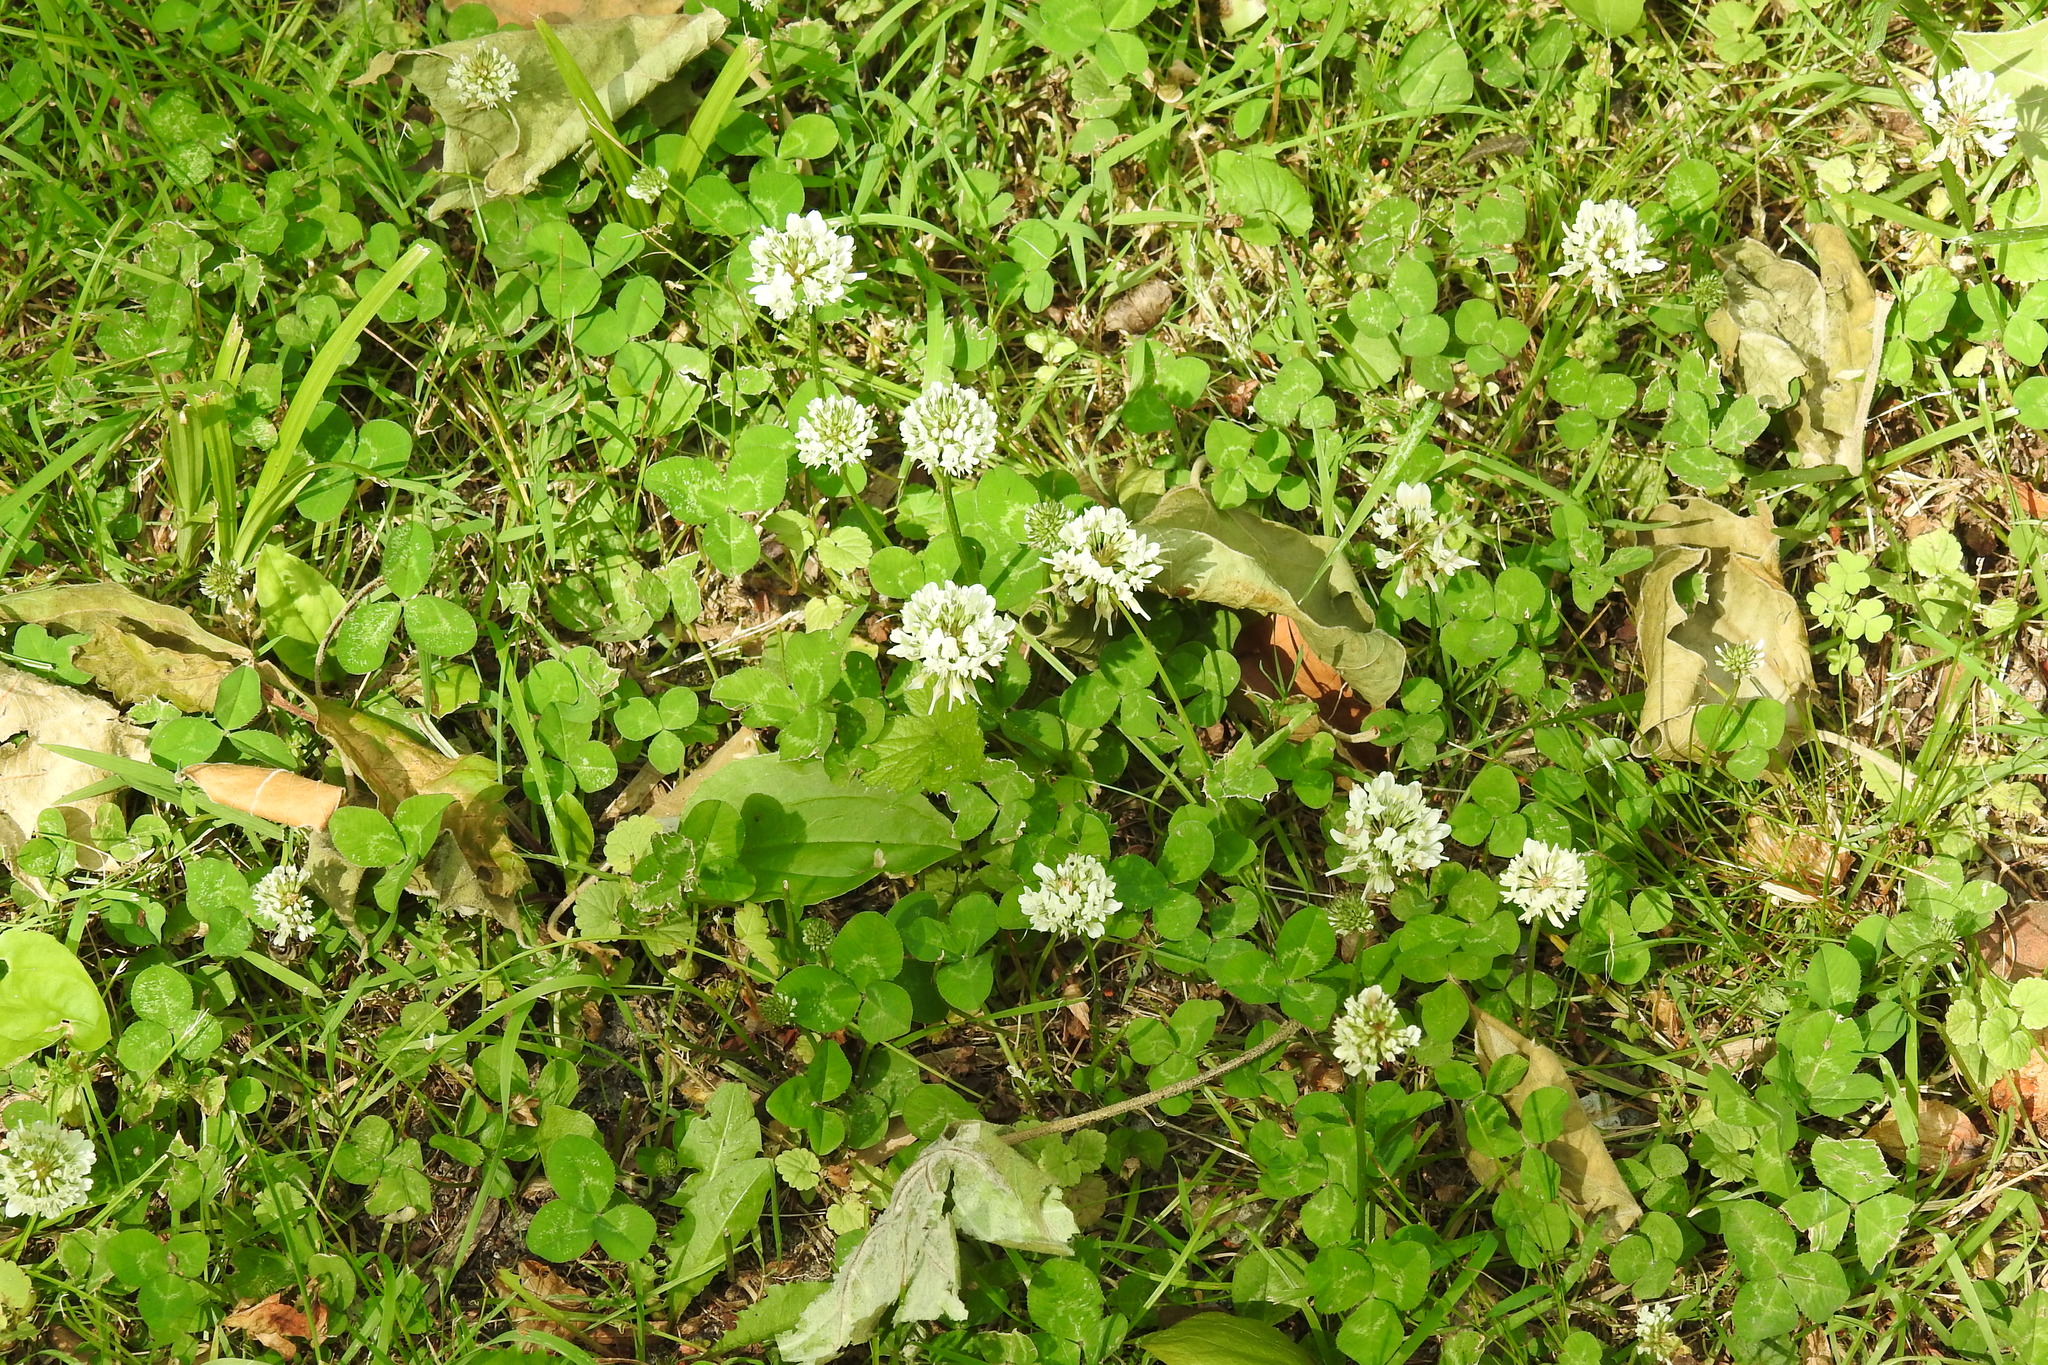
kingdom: Plantae
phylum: Tracheophyta
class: Magnoliopsida
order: Fabales
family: Fabaceae
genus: Trifolium
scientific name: Trifolium repens
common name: White clover
